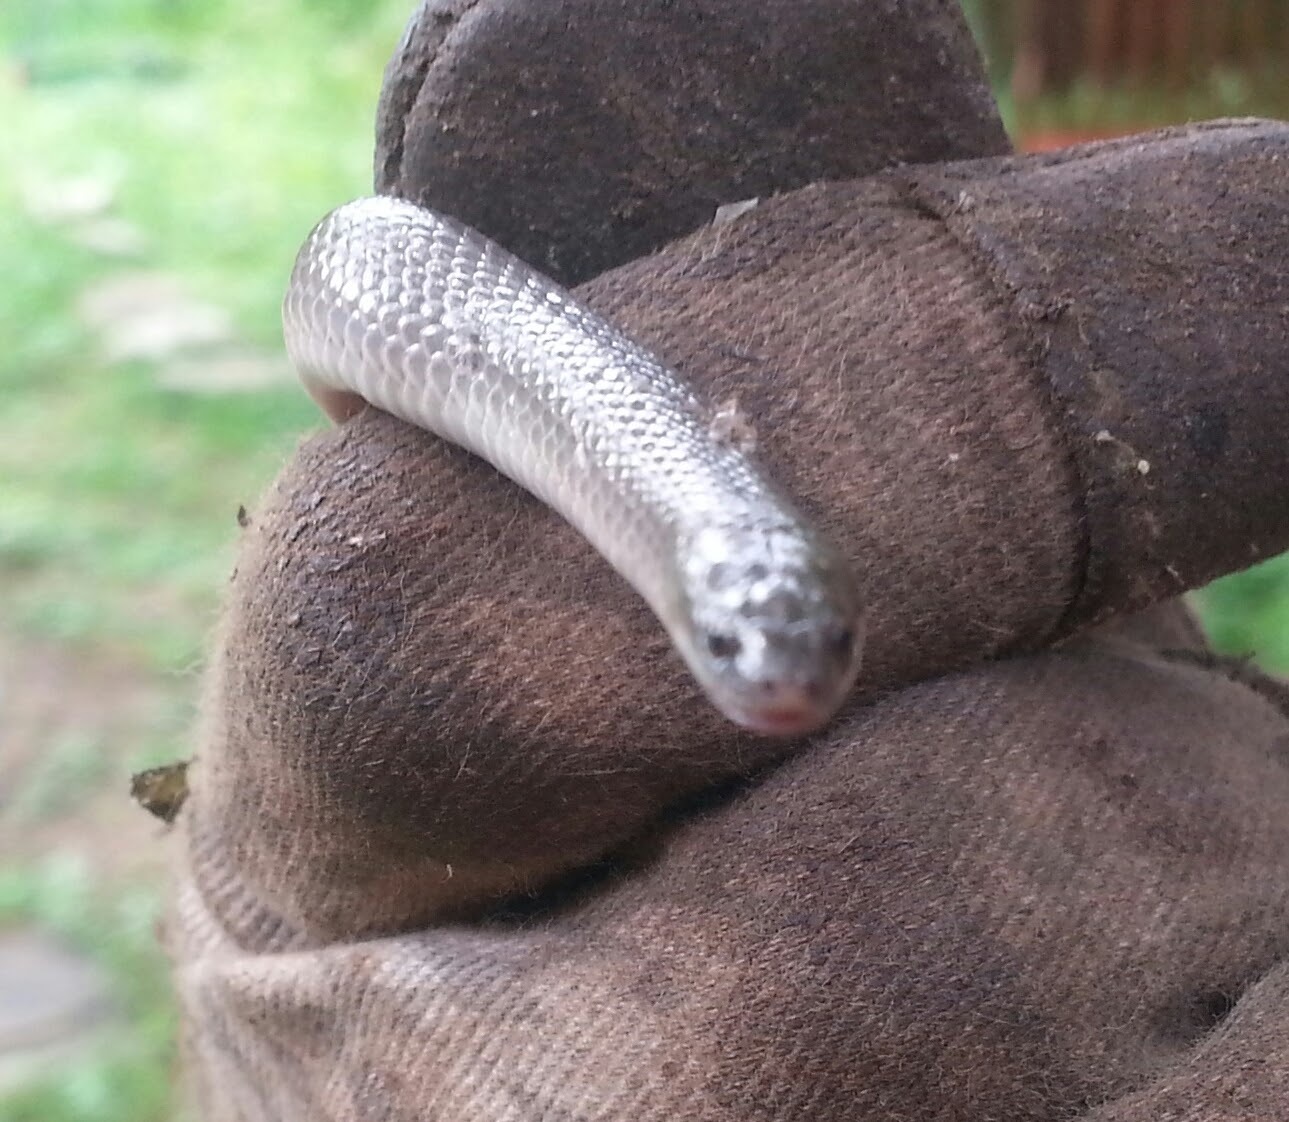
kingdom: Animalia
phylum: Chordata
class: Squamata
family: Colubridae
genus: Haldea
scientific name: Haldea striatula
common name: Rough earth snake
